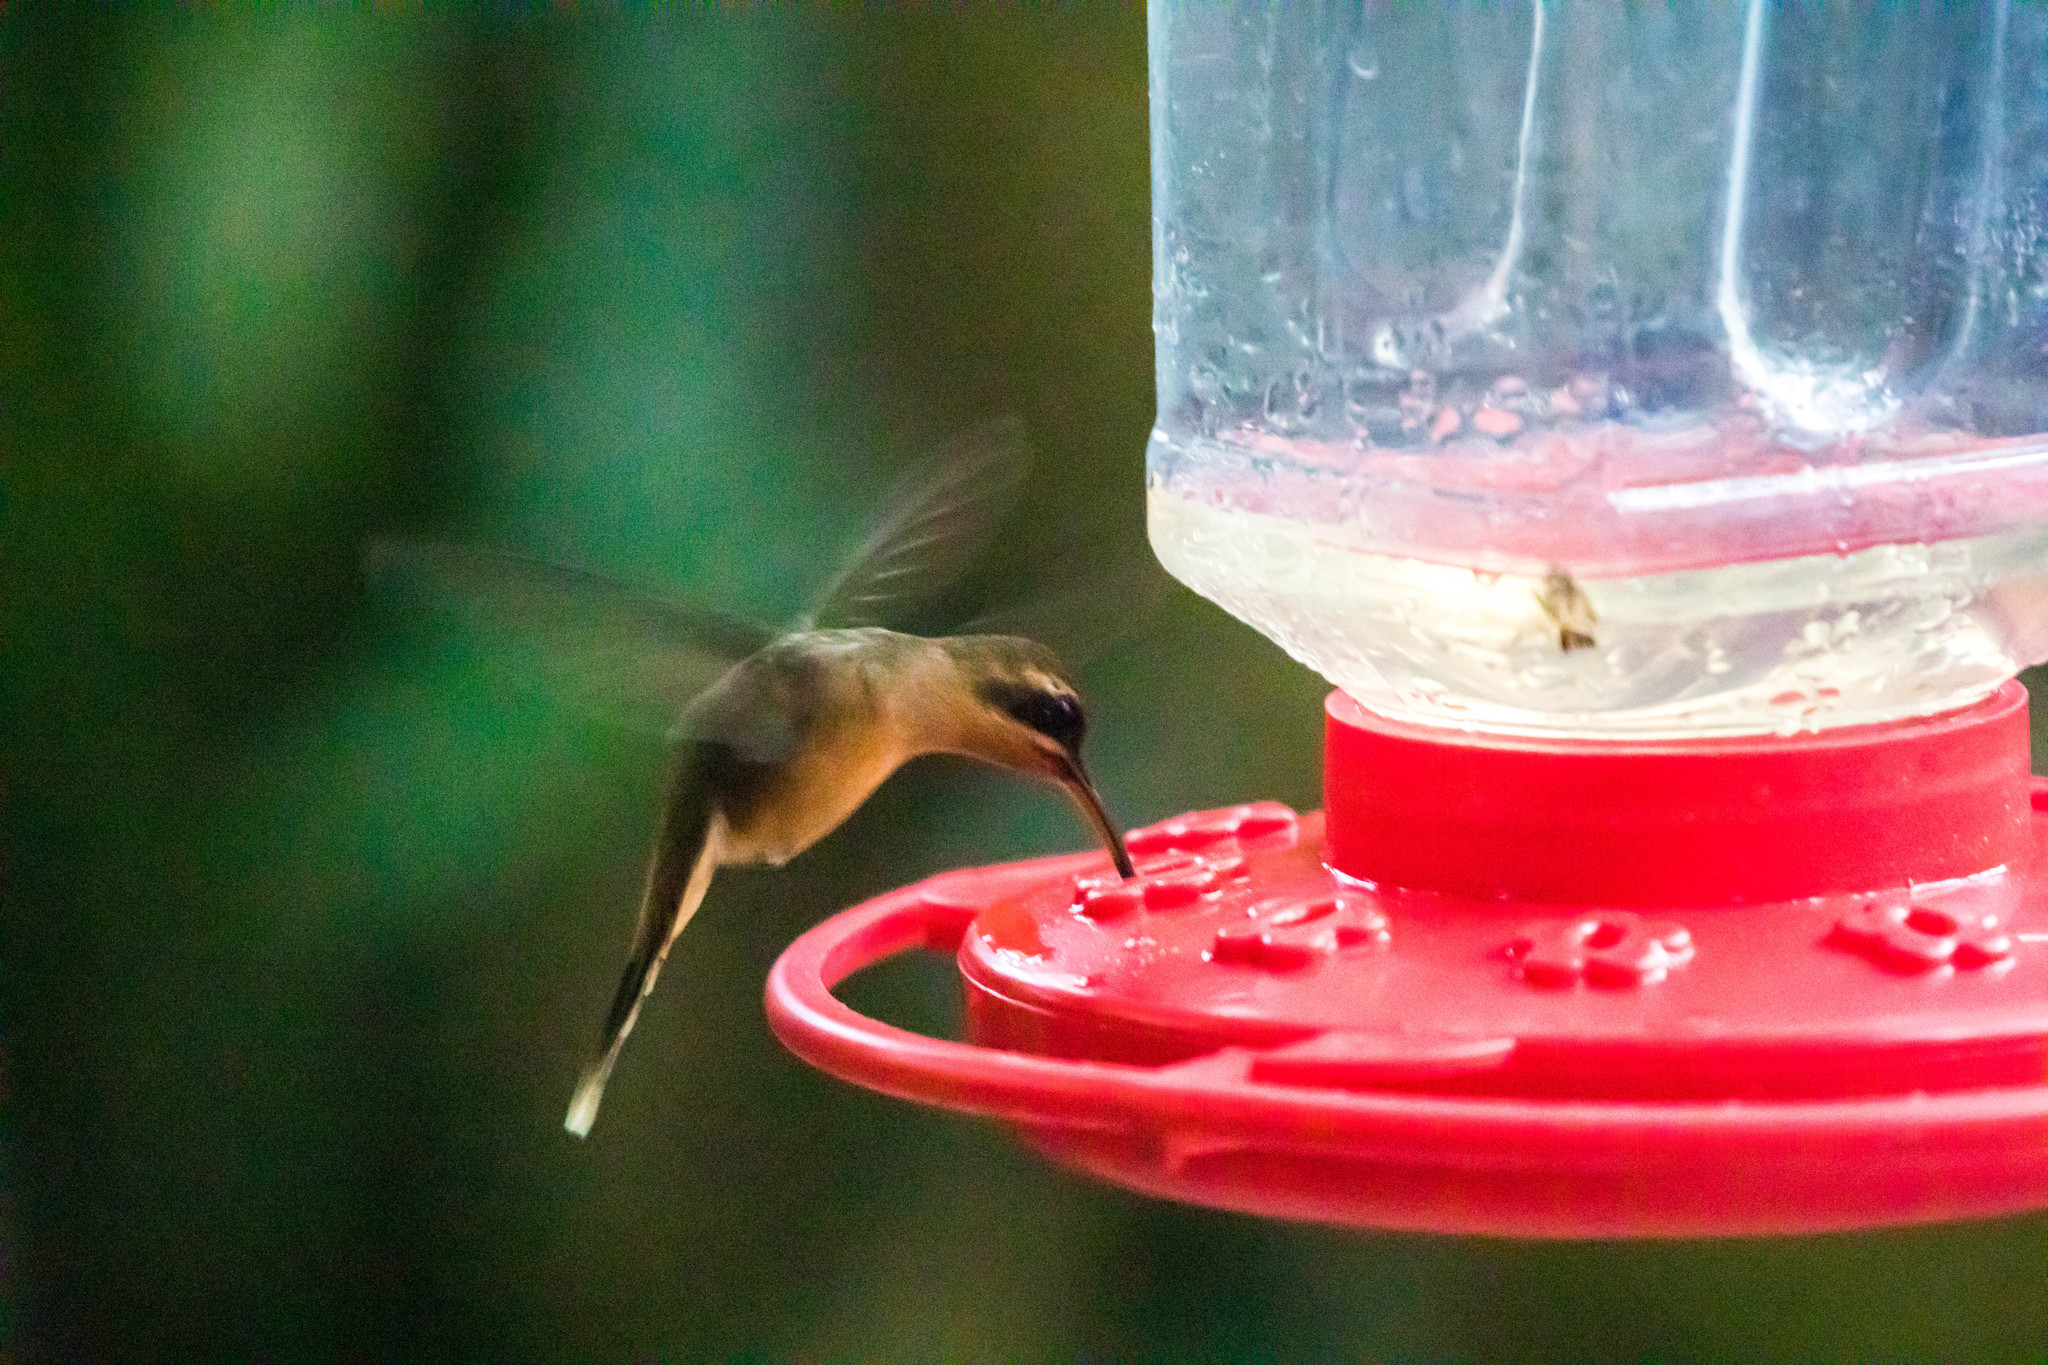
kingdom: Animalia
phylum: Chordata
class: Aves
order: Apodiformes
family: Trochilidae
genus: Phaethornis
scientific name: Phaethornis striigularis
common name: Stripe-throated hermit
